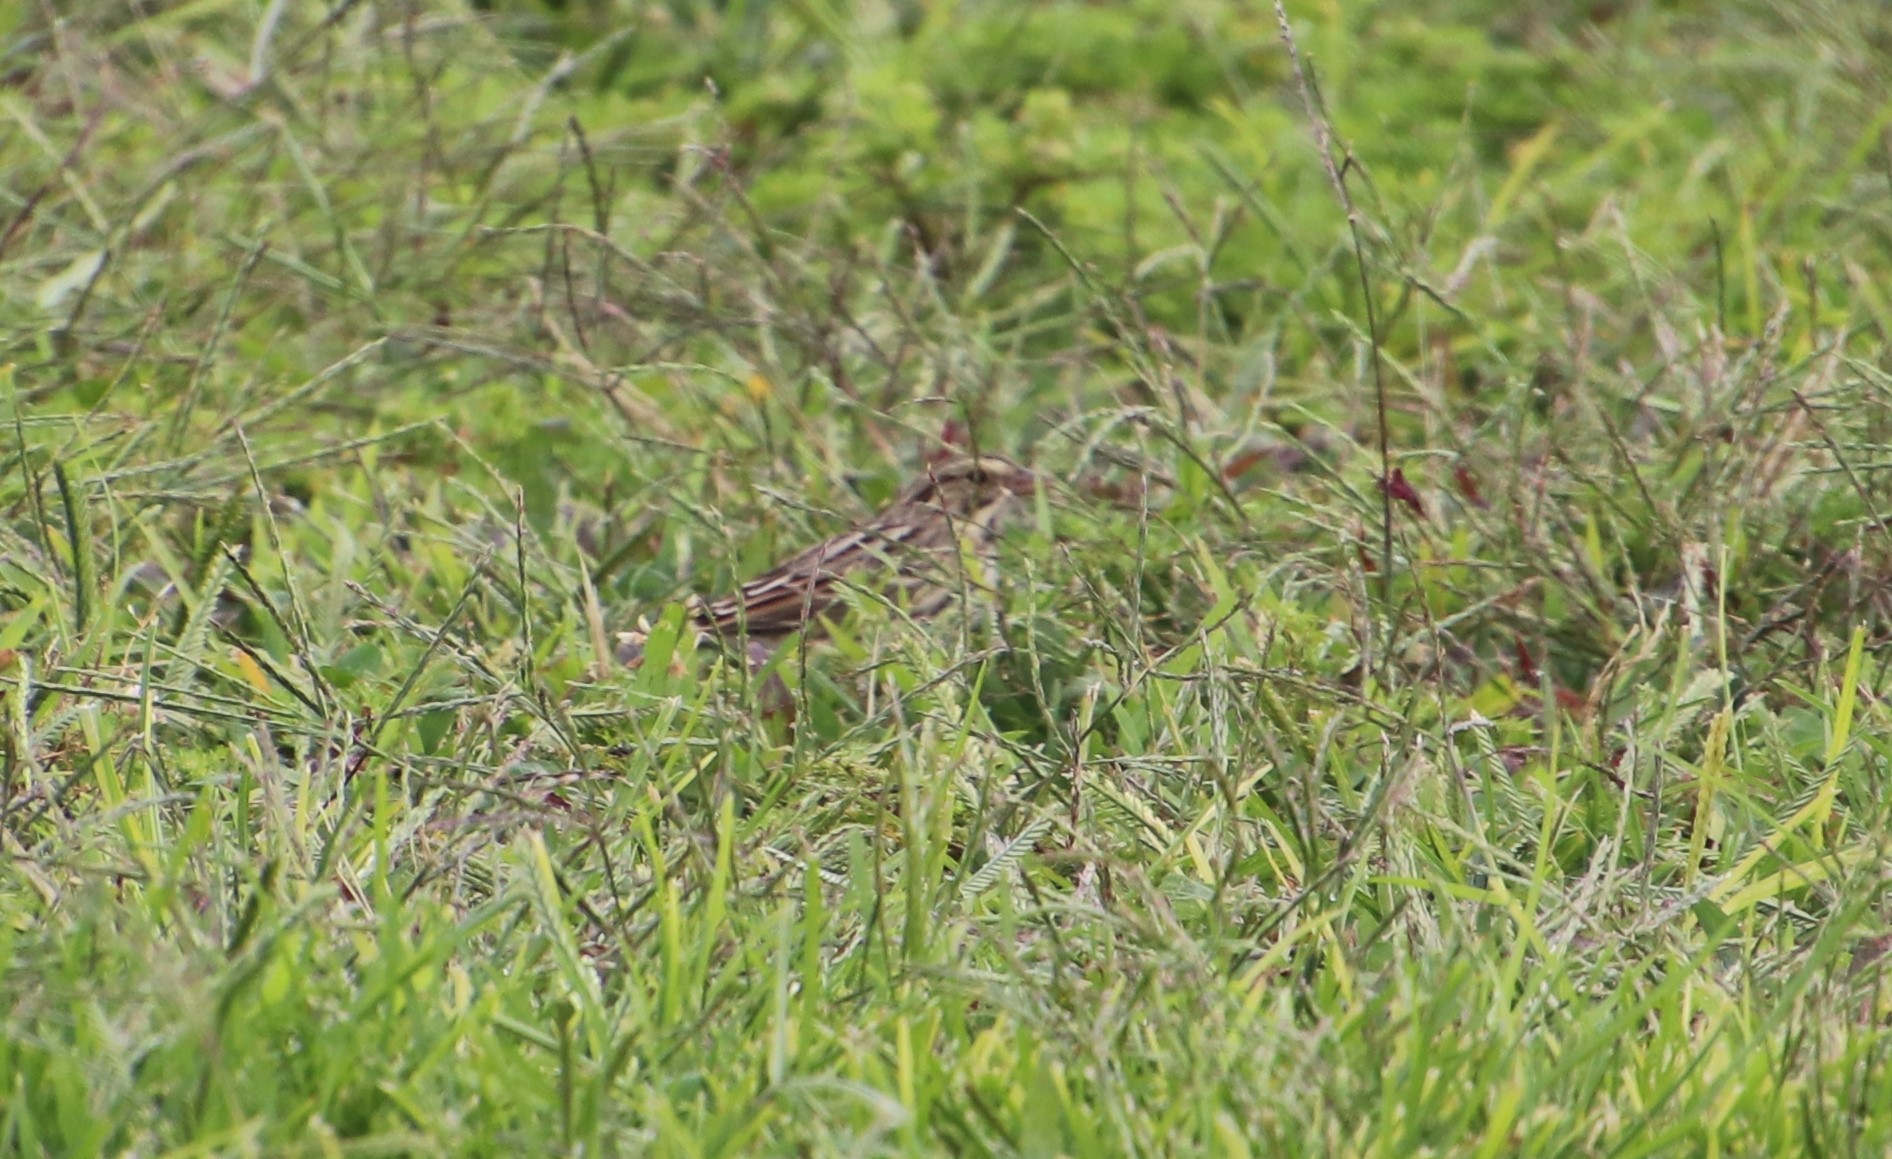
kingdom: Animalia
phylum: Chordata
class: Aves
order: Passeriformes
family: Passerellidae
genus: Passerculus
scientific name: Passerculus sandwichensis
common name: Savannah sparrow
